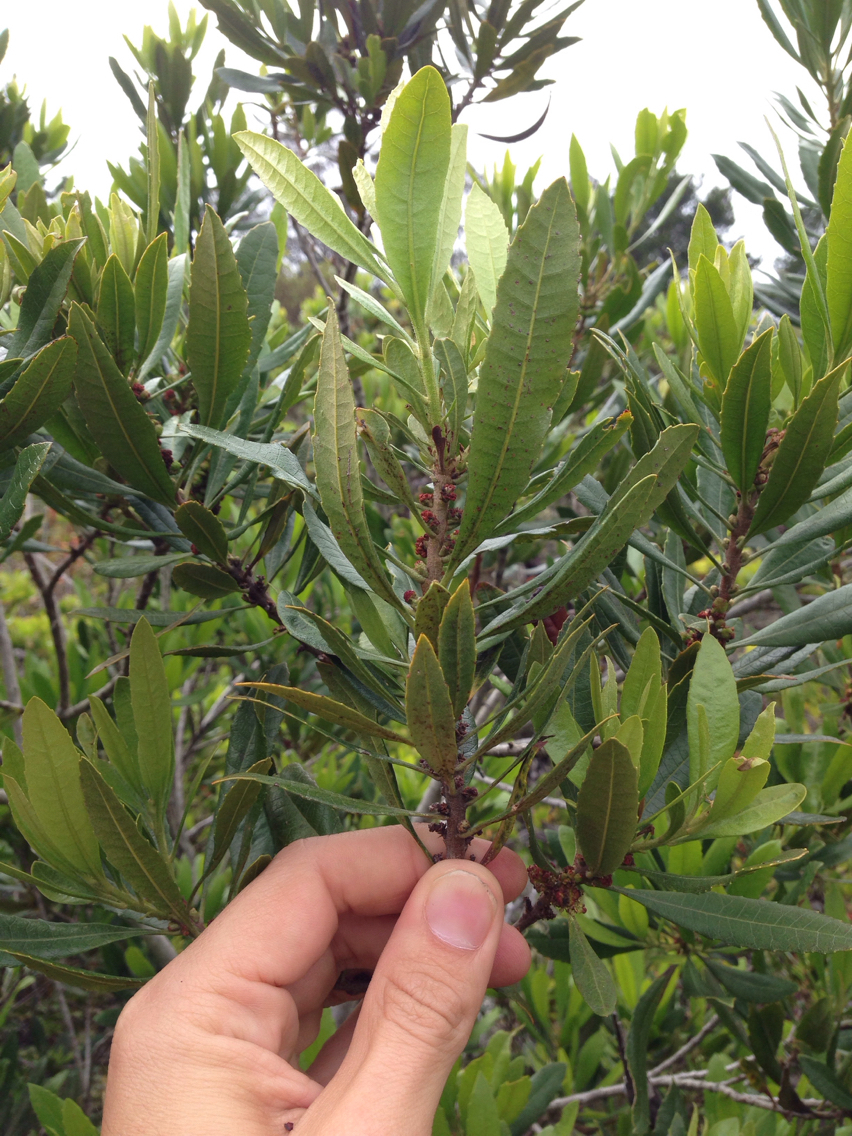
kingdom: Plantae
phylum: Tracheophyta
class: Magnoliopsida
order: Fagales
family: Myricaceae
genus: Morella
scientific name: Morella californica
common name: California wax-myrtle
